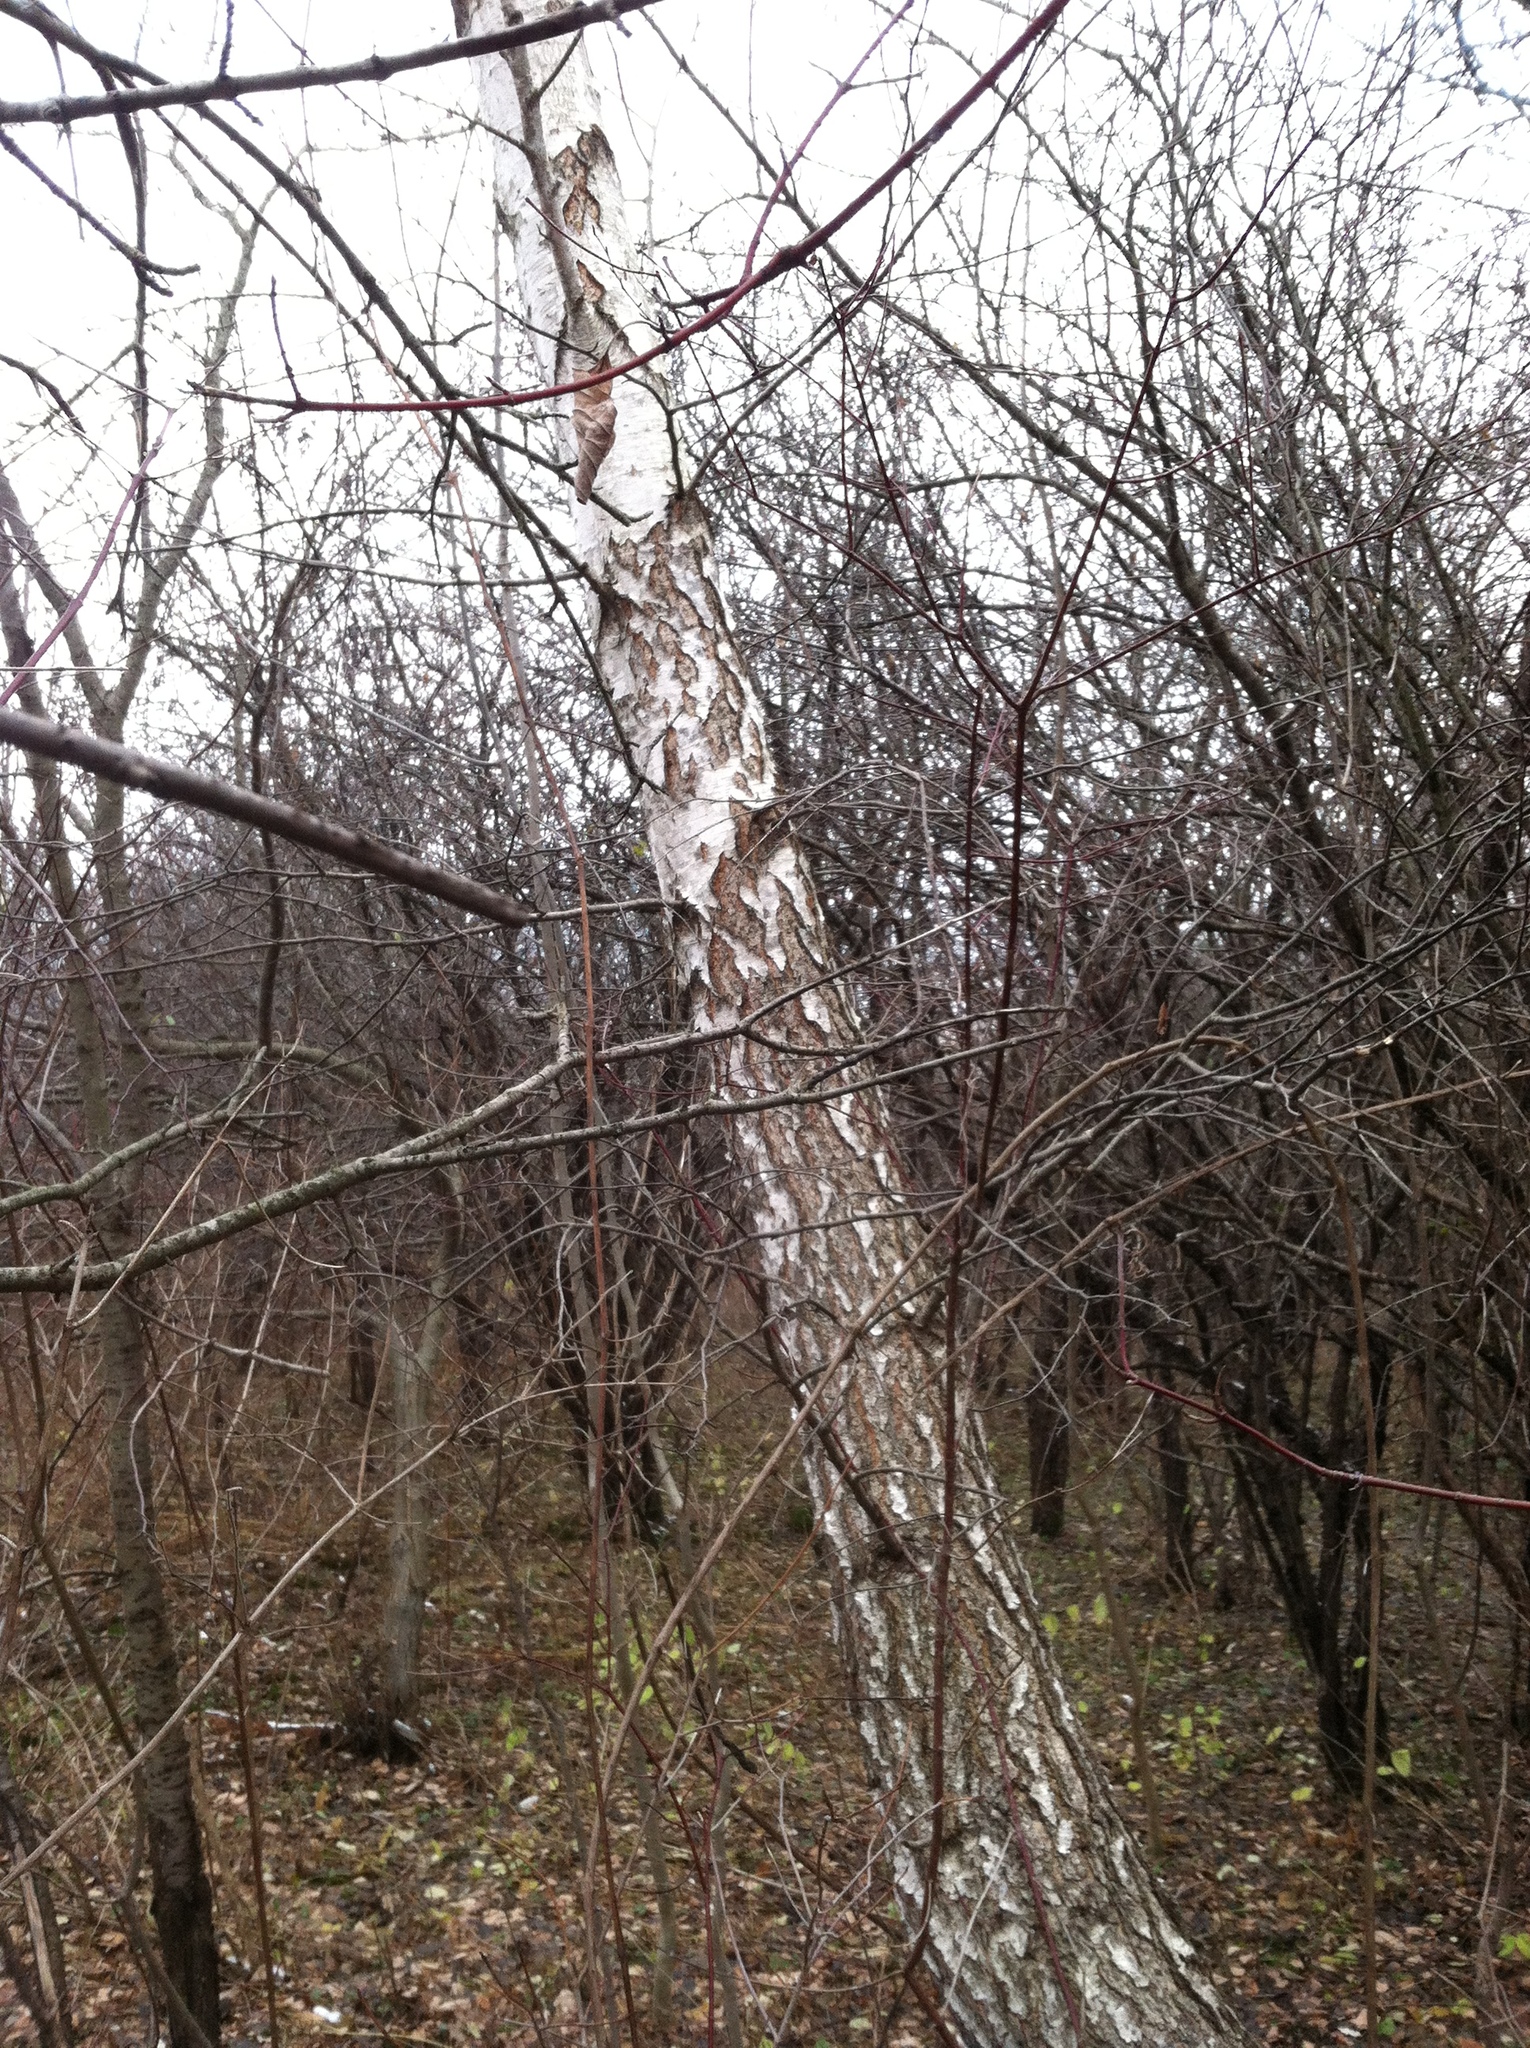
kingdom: Plantae
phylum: Tracheophyta
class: Magnoliopsida
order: Fagales
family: Betulaceae
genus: Betula
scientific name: Betula pendula
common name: Silver birch
